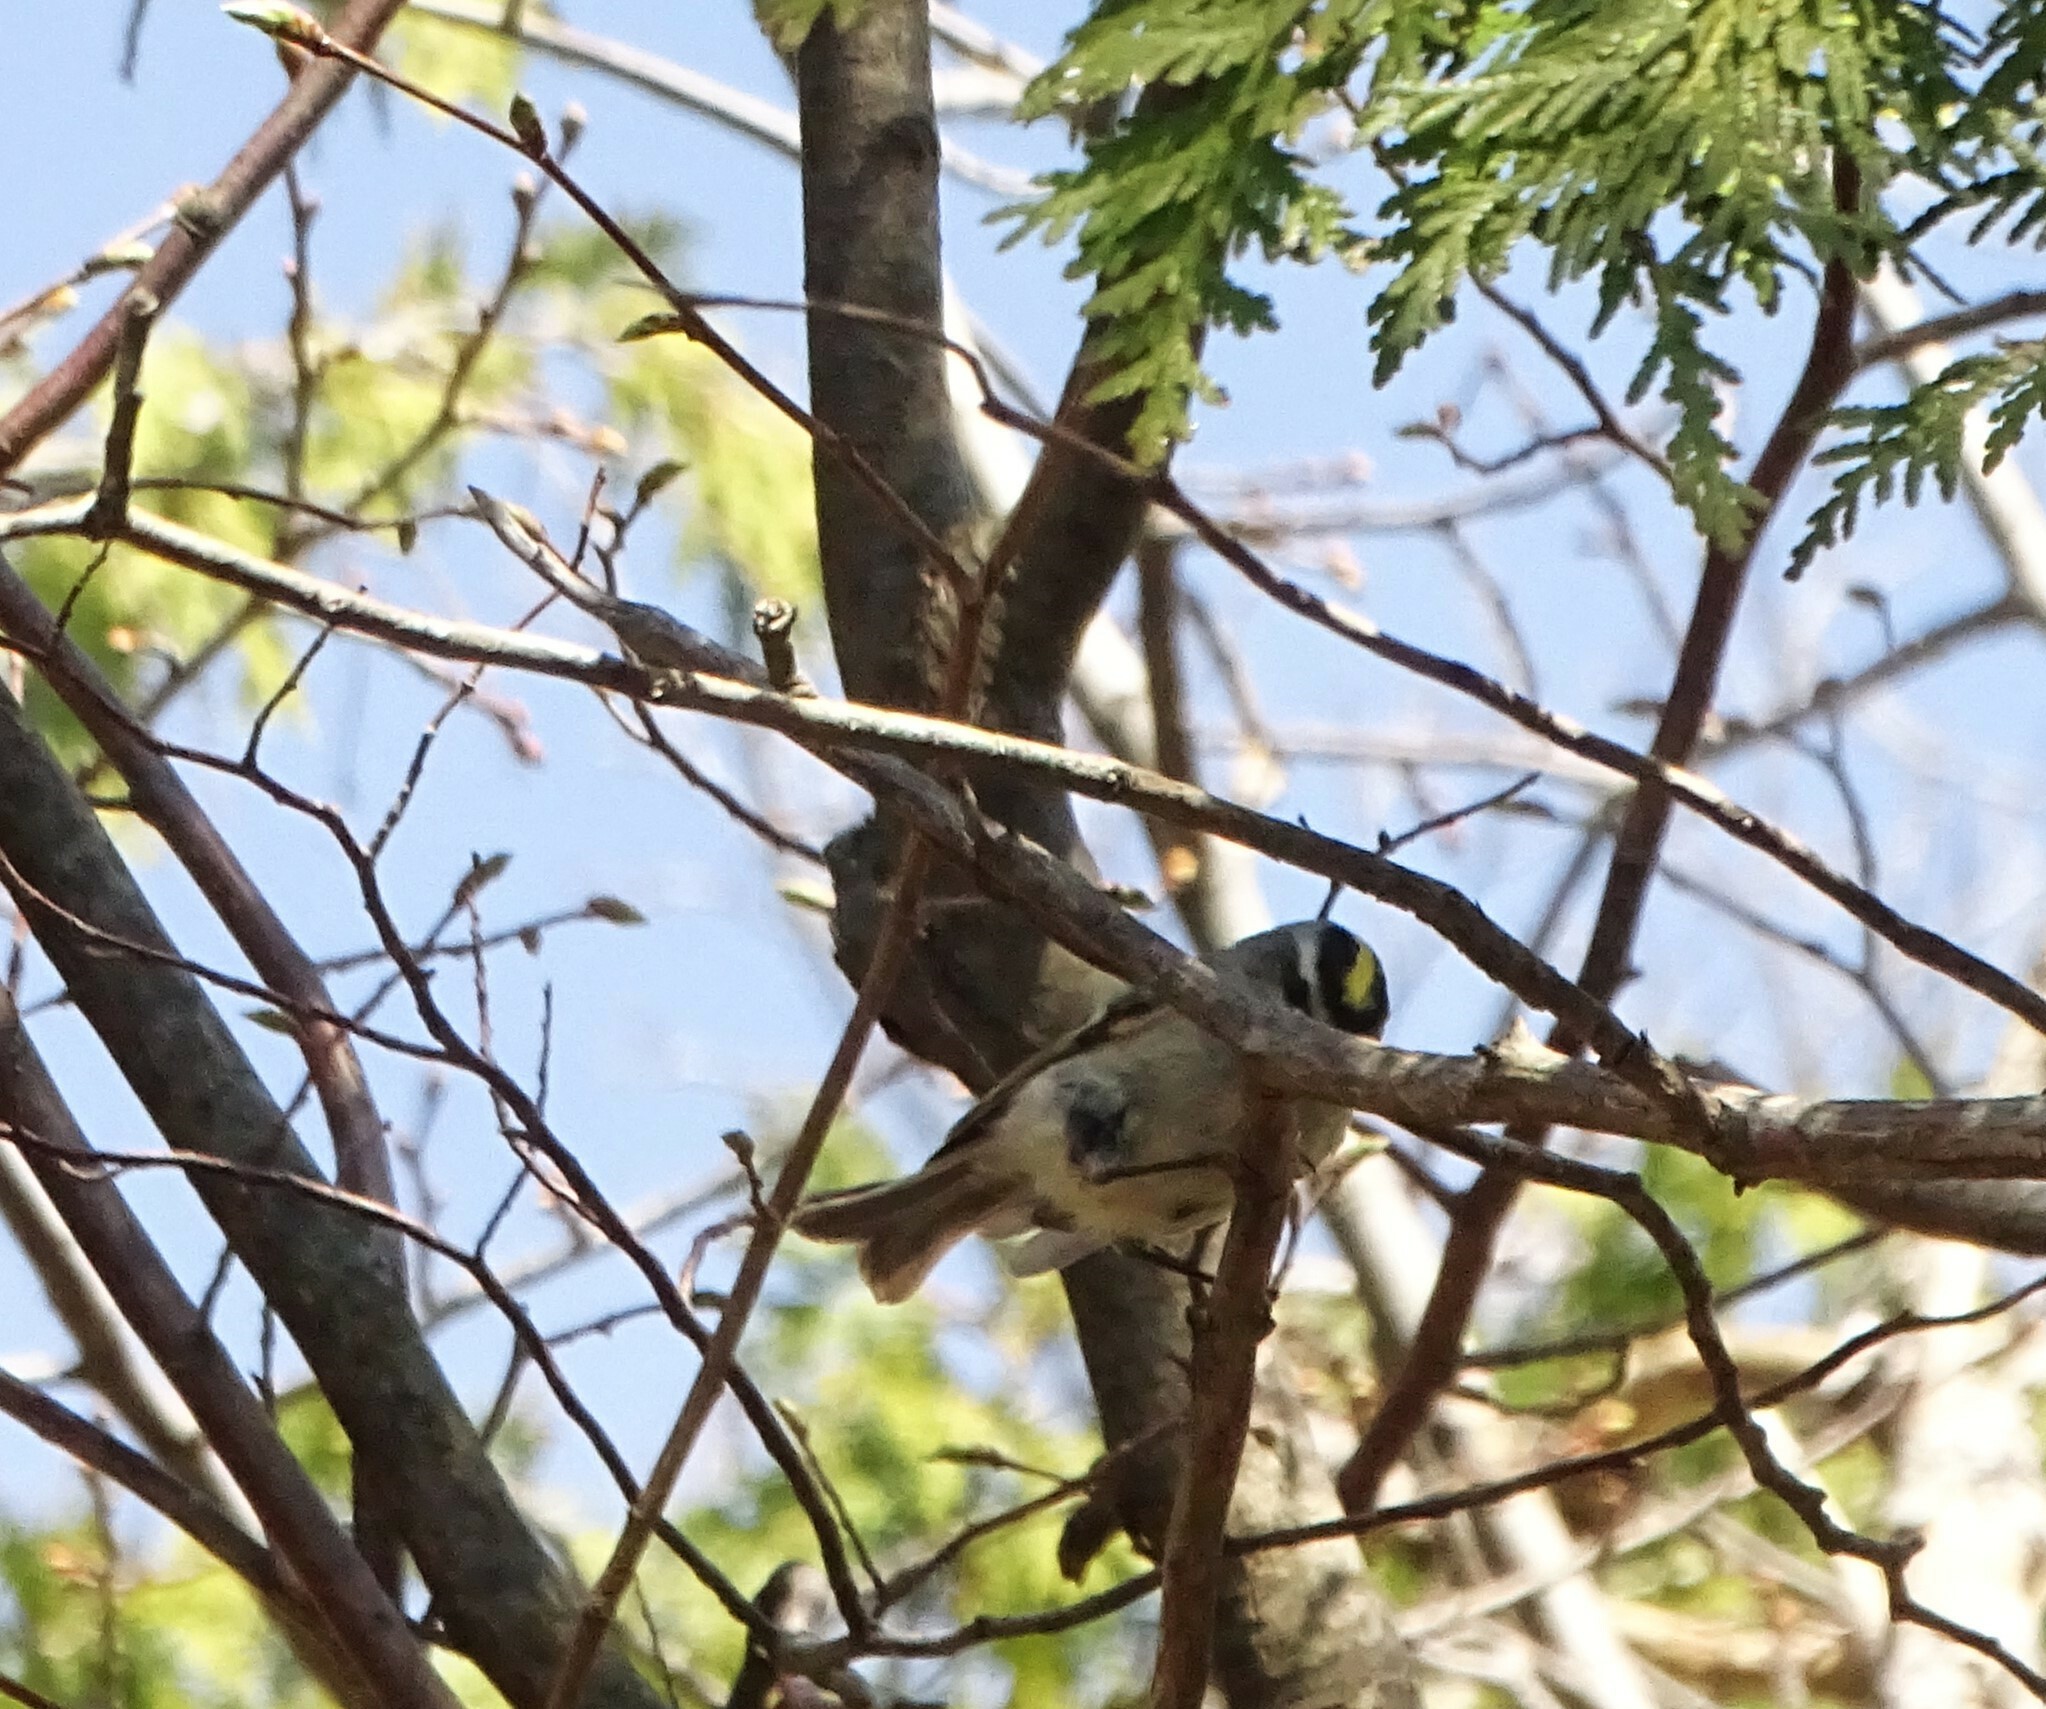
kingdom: Animalia
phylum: Chordata
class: Aves
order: Passeriformes
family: Regulidae
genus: Regulus
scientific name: Regulus satrapa
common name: Golden-crowned kinglet
